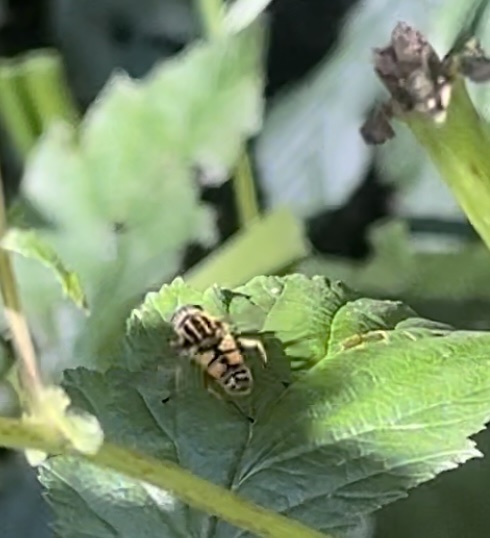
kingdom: Animalia
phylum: Arthropoda
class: Insecta
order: Diptera
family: Syrphidae
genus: Helophilus
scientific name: Helophilus pendulus
